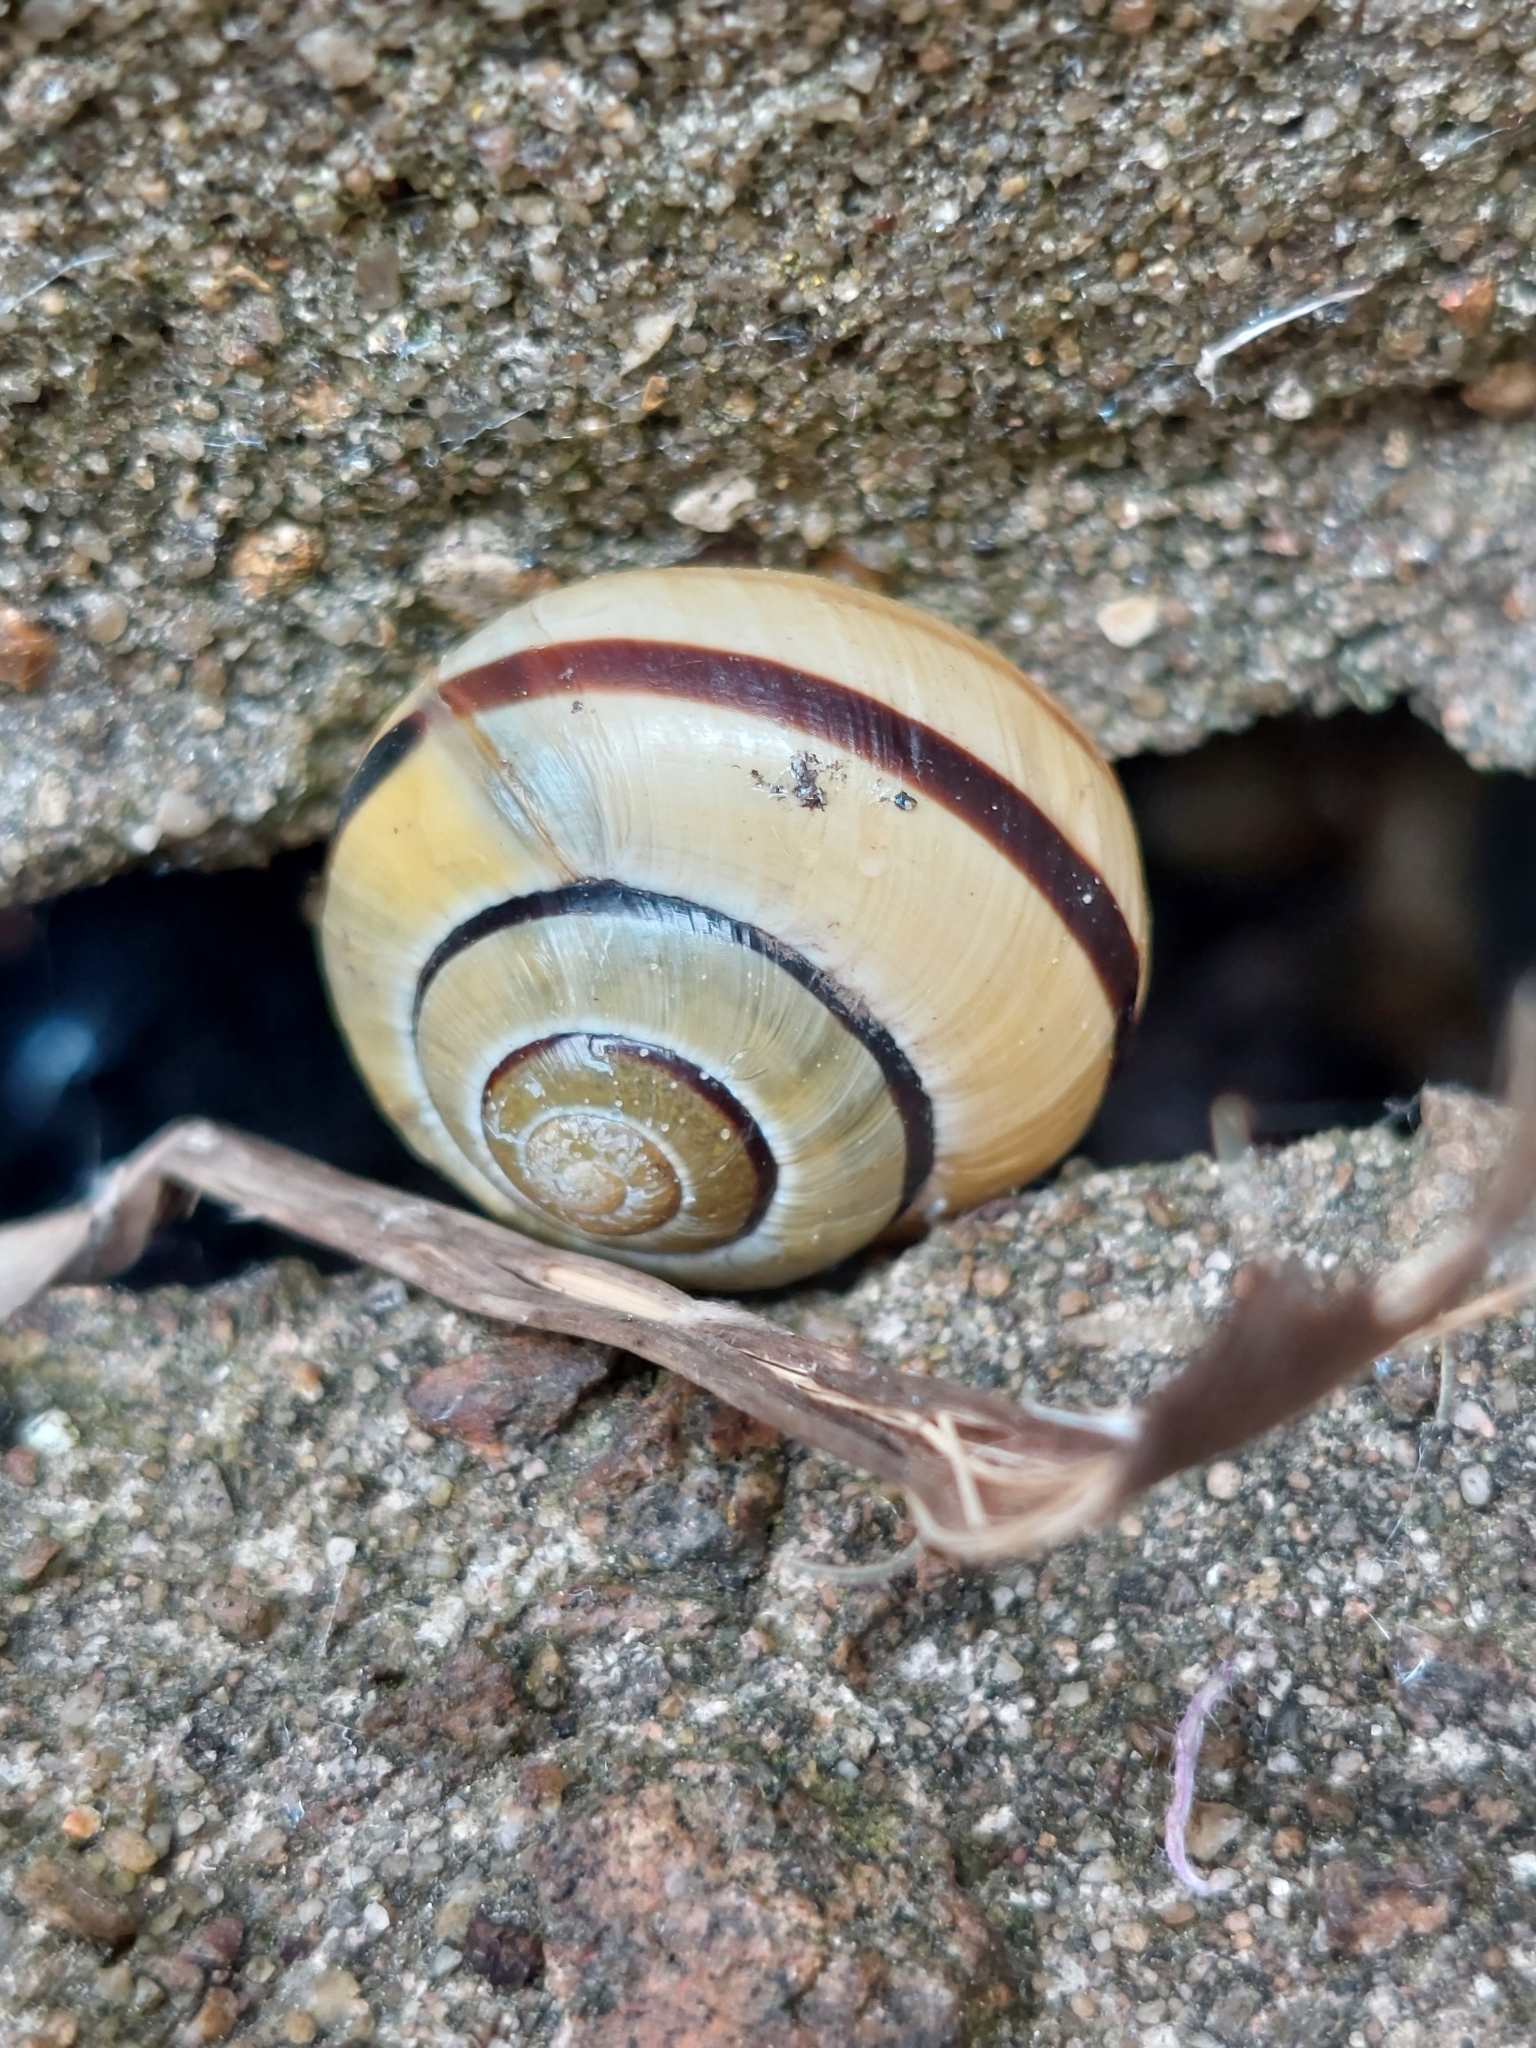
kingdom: Animalia
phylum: Mollusca
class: Gastropoda
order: Stylommatophora
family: Helicidae
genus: Cepaea
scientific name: Cepaea
